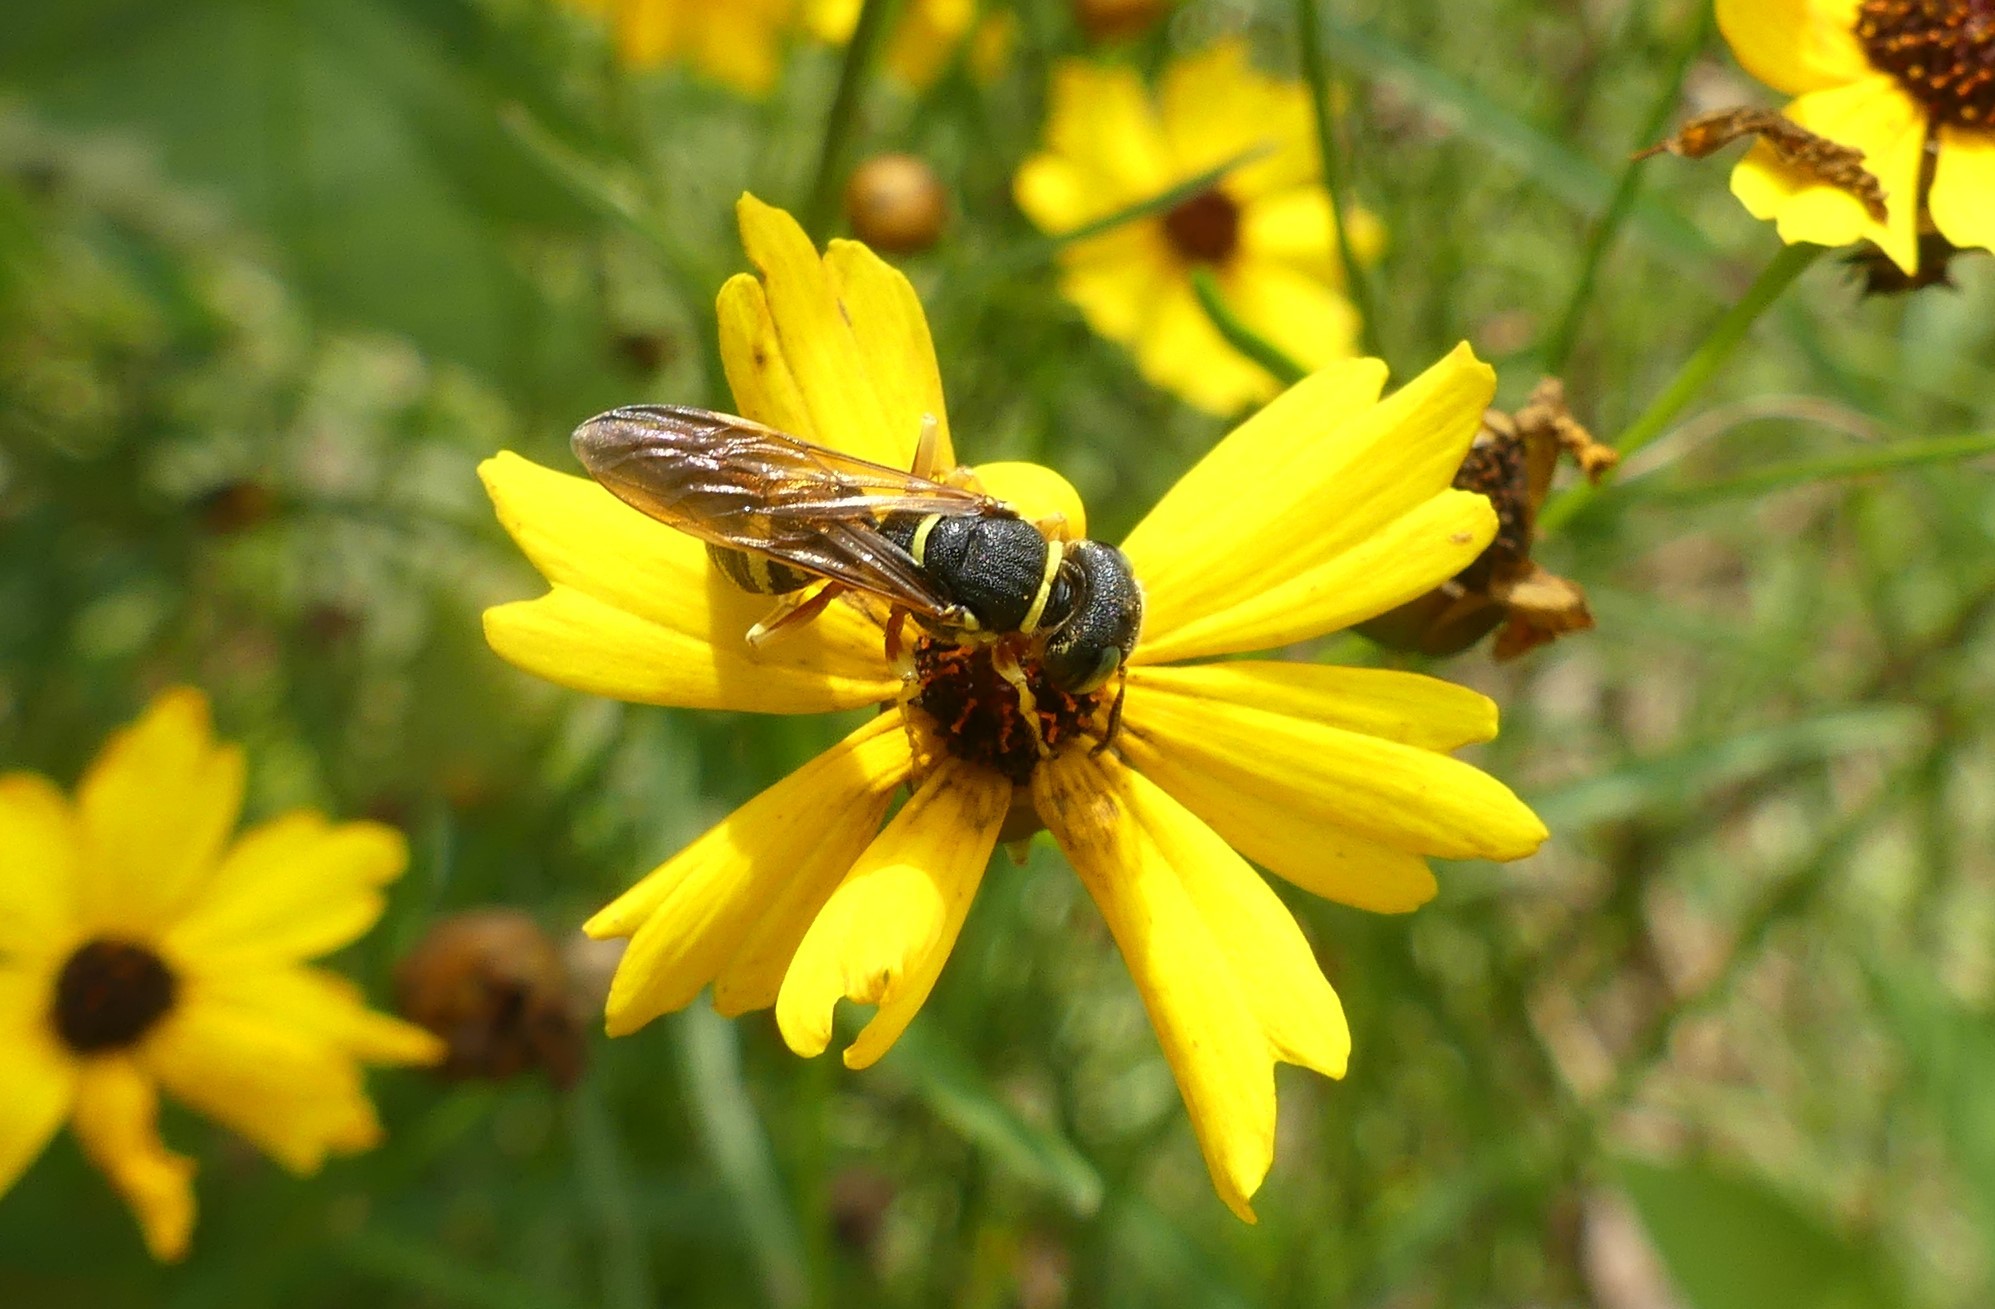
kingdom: Animalia
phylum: Arthropoda
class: Insecta
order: Hymenoptera
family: Crabronidae
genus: Philanthus
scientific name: Philanthus ventilabris
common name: Bee-killer wasp
